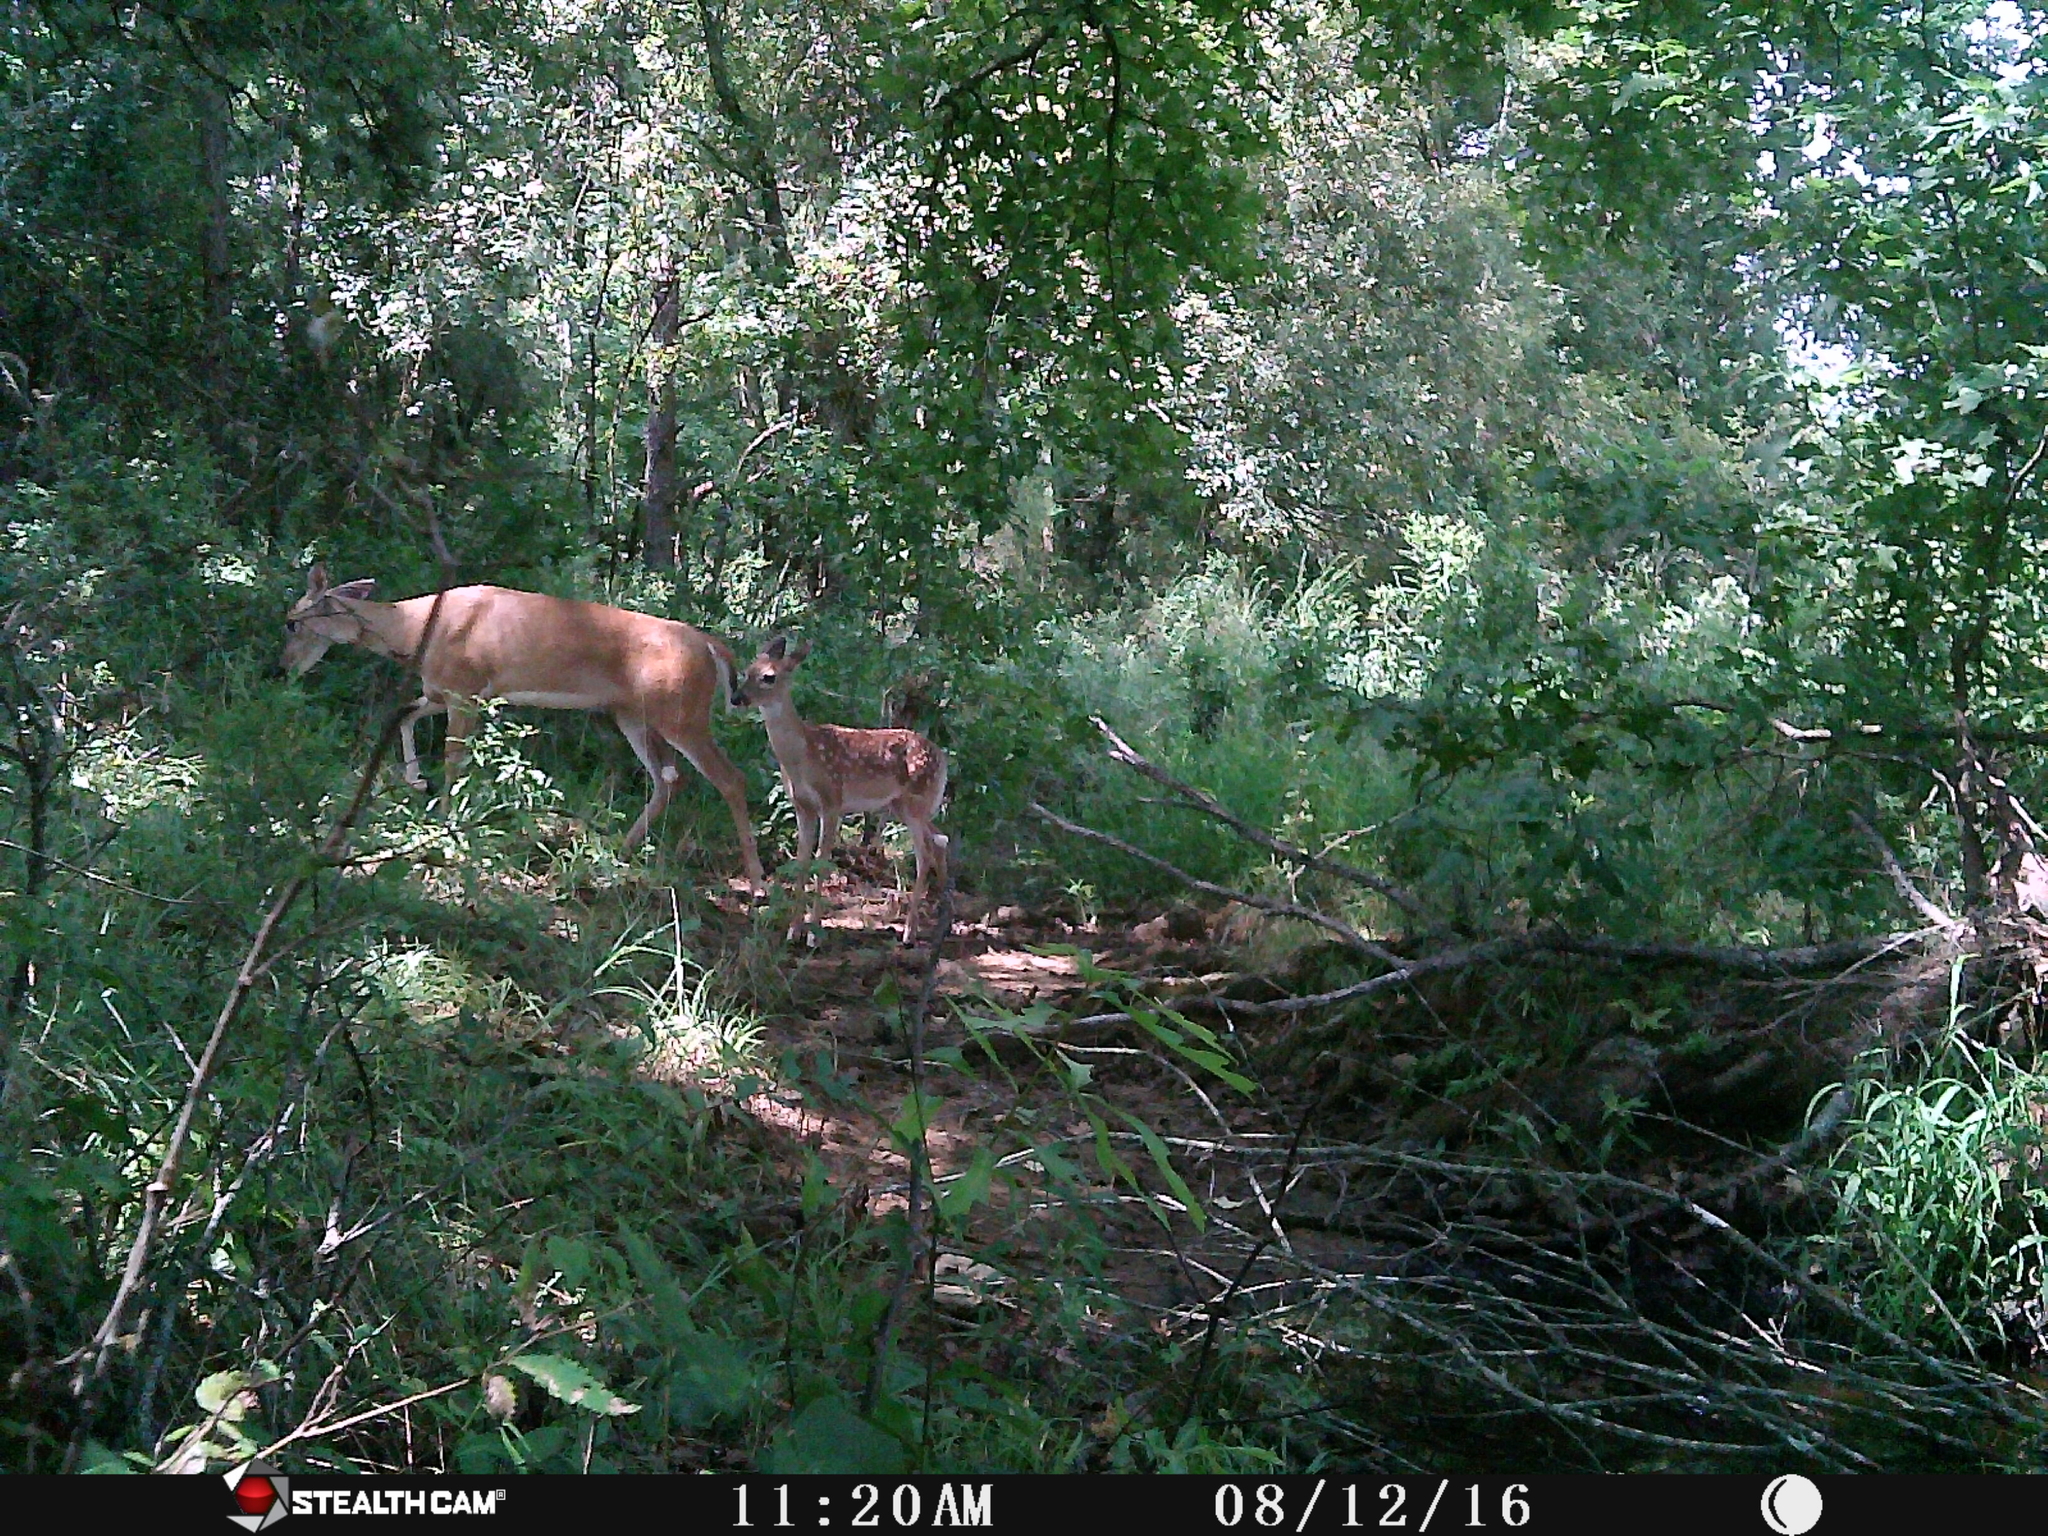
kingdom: Animalia
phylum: Chordata
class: Mammalia
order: Artiodactyla
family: Cervidae
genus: Odocoileus
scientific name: Odocoileus virginianus
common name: White-tailed deer
